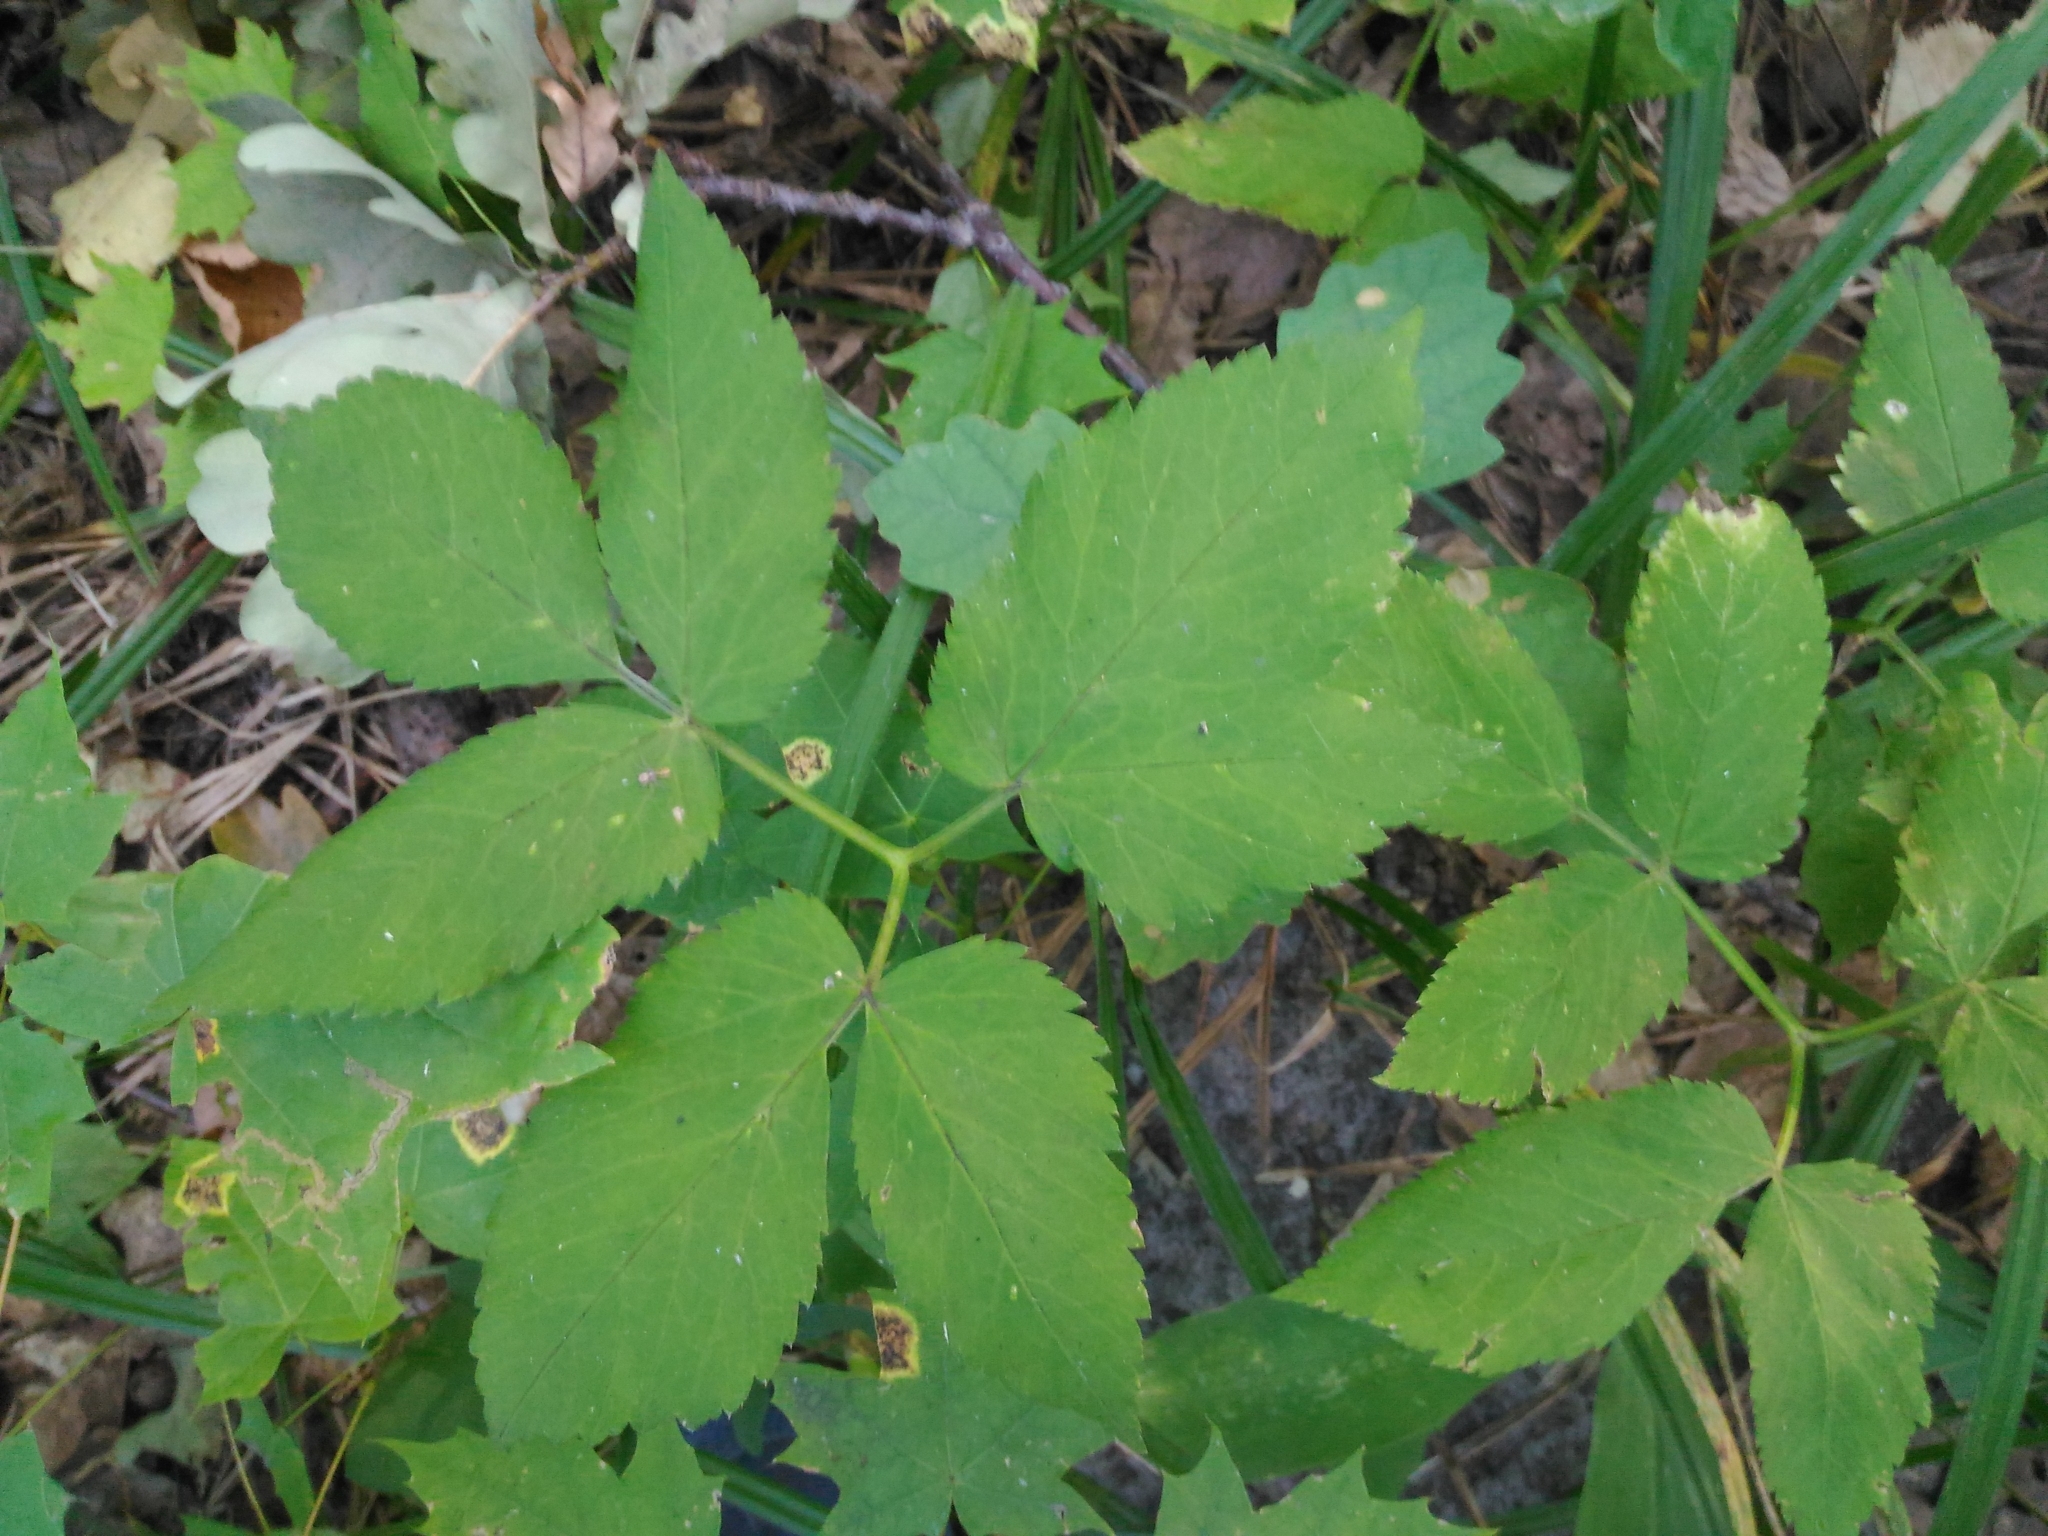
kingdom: Plantae
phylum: Tracheophyta
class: Magnoliopsida
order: Apiales
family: Apiaceae
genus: Aegopodium
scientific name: Aegopodium podagraria
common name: Ground-elder
